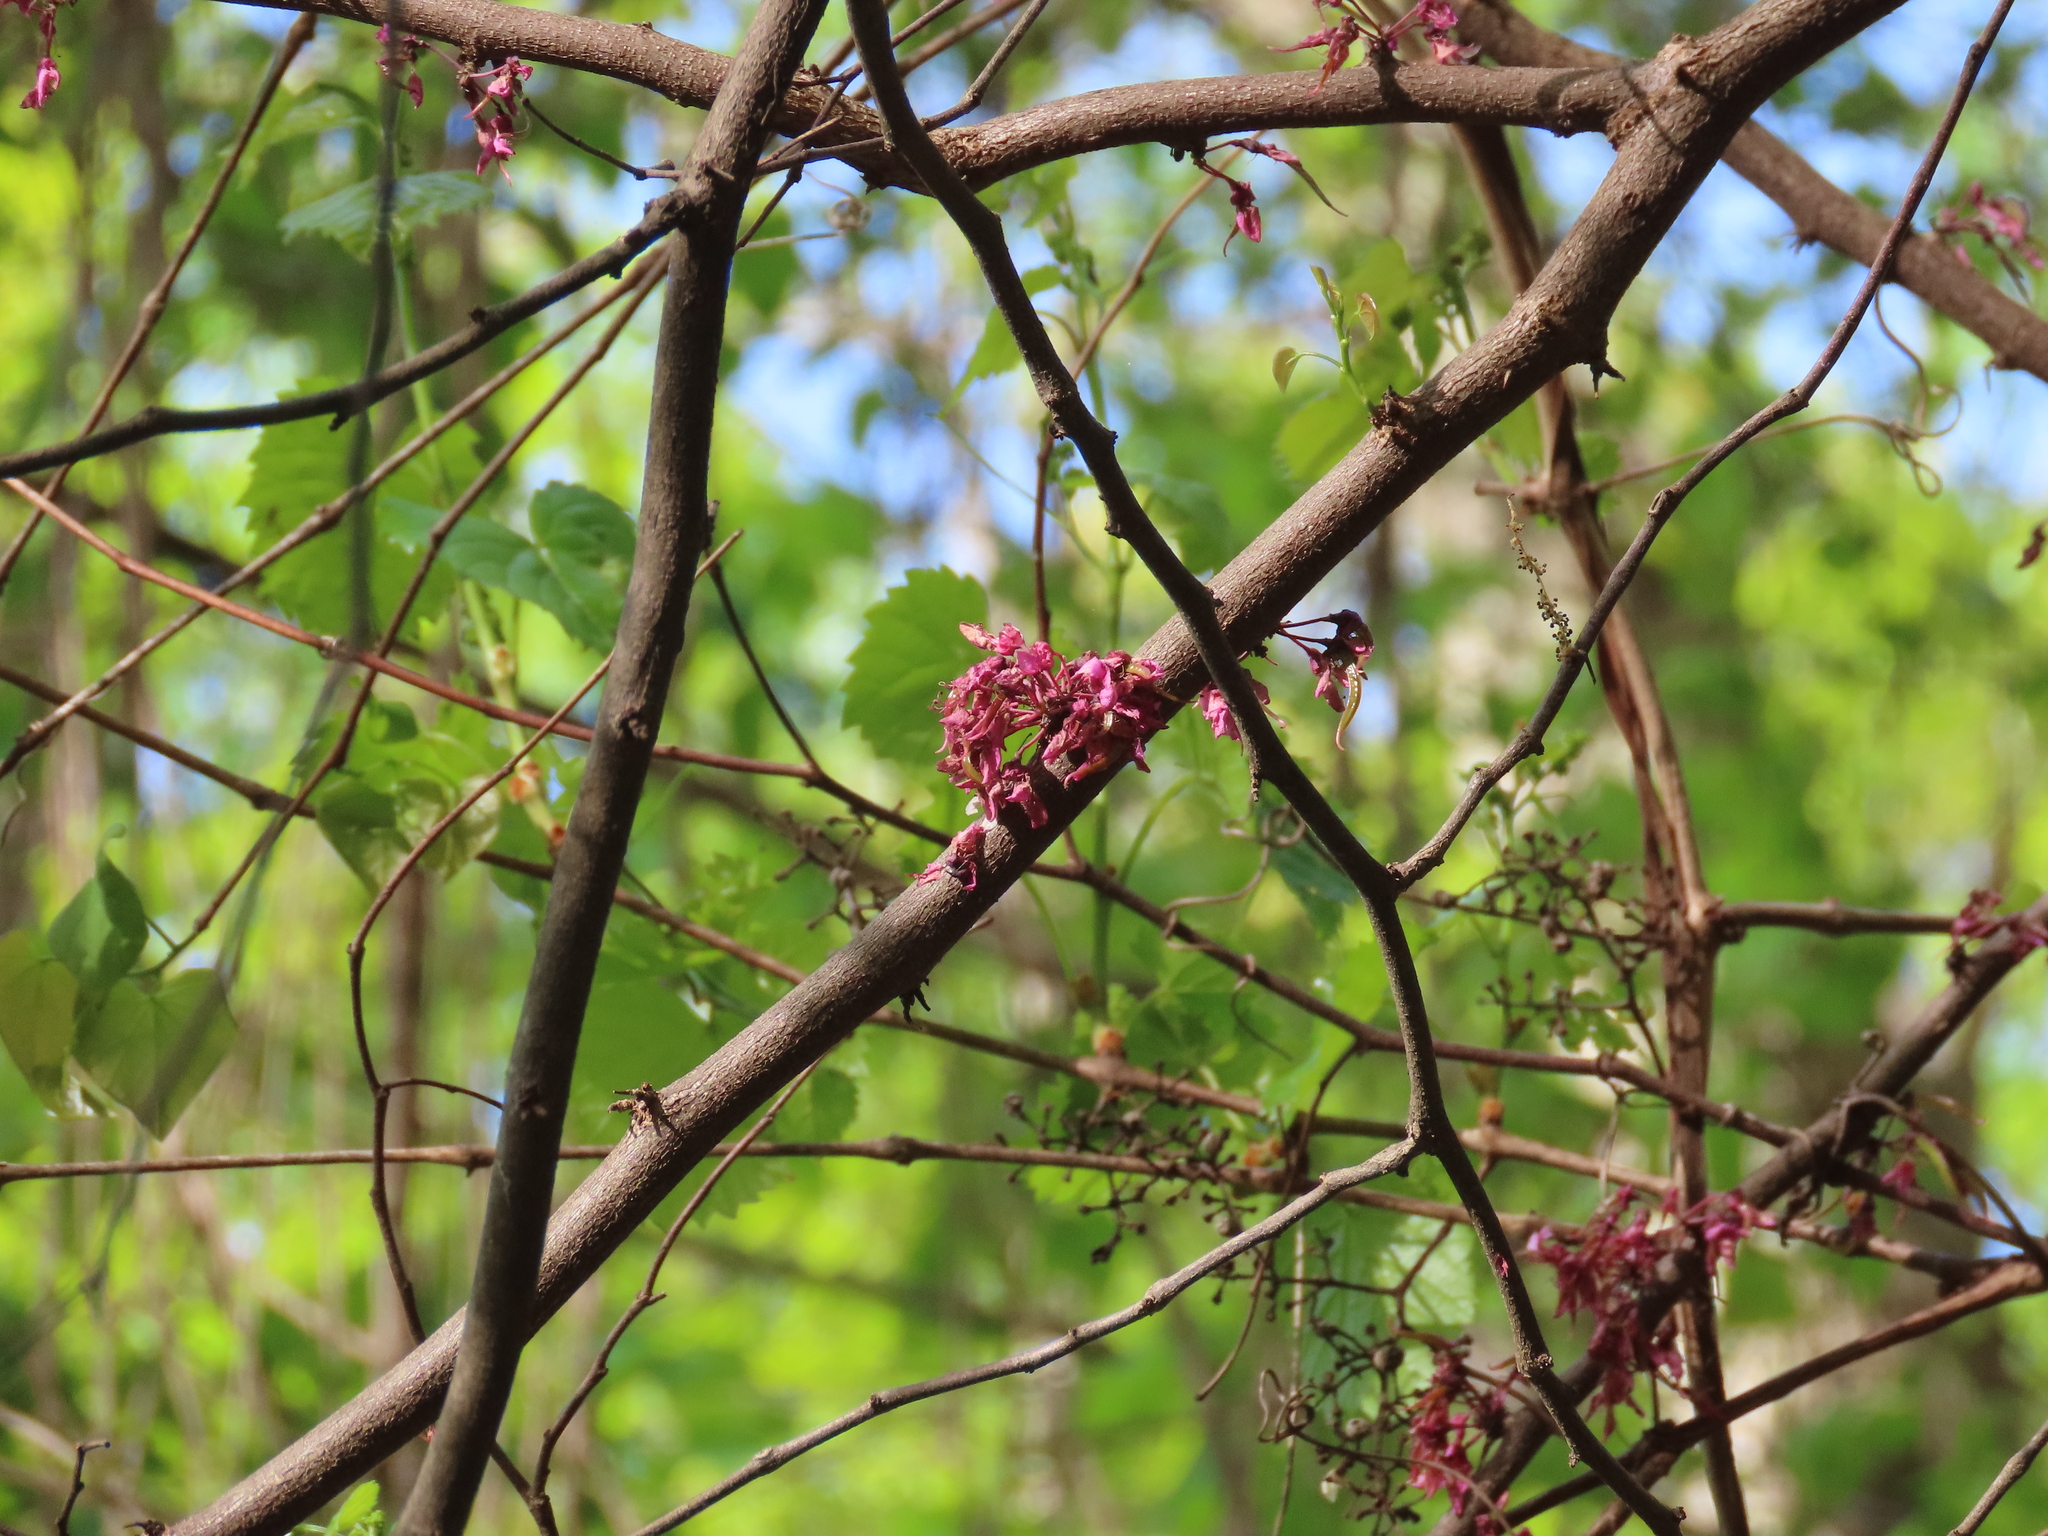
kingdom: Plantae
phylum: Tracheophyta
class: Magnoliopsida
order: Fabales
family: Fabaceae
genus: Cercis
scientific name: Cercis canadensis
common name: Eastern redbud
